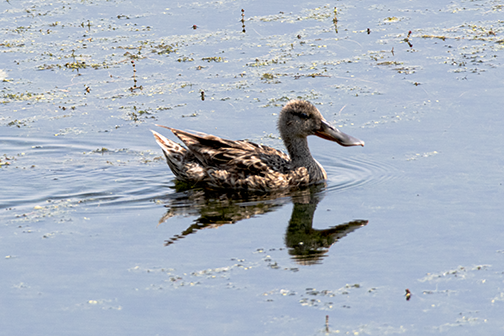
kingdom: Animalia
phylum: Chordata
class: Aves
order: Anseriformes
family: Anatidae
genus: Spatula
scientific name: Spatula clypeata
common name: Northern shoveler
